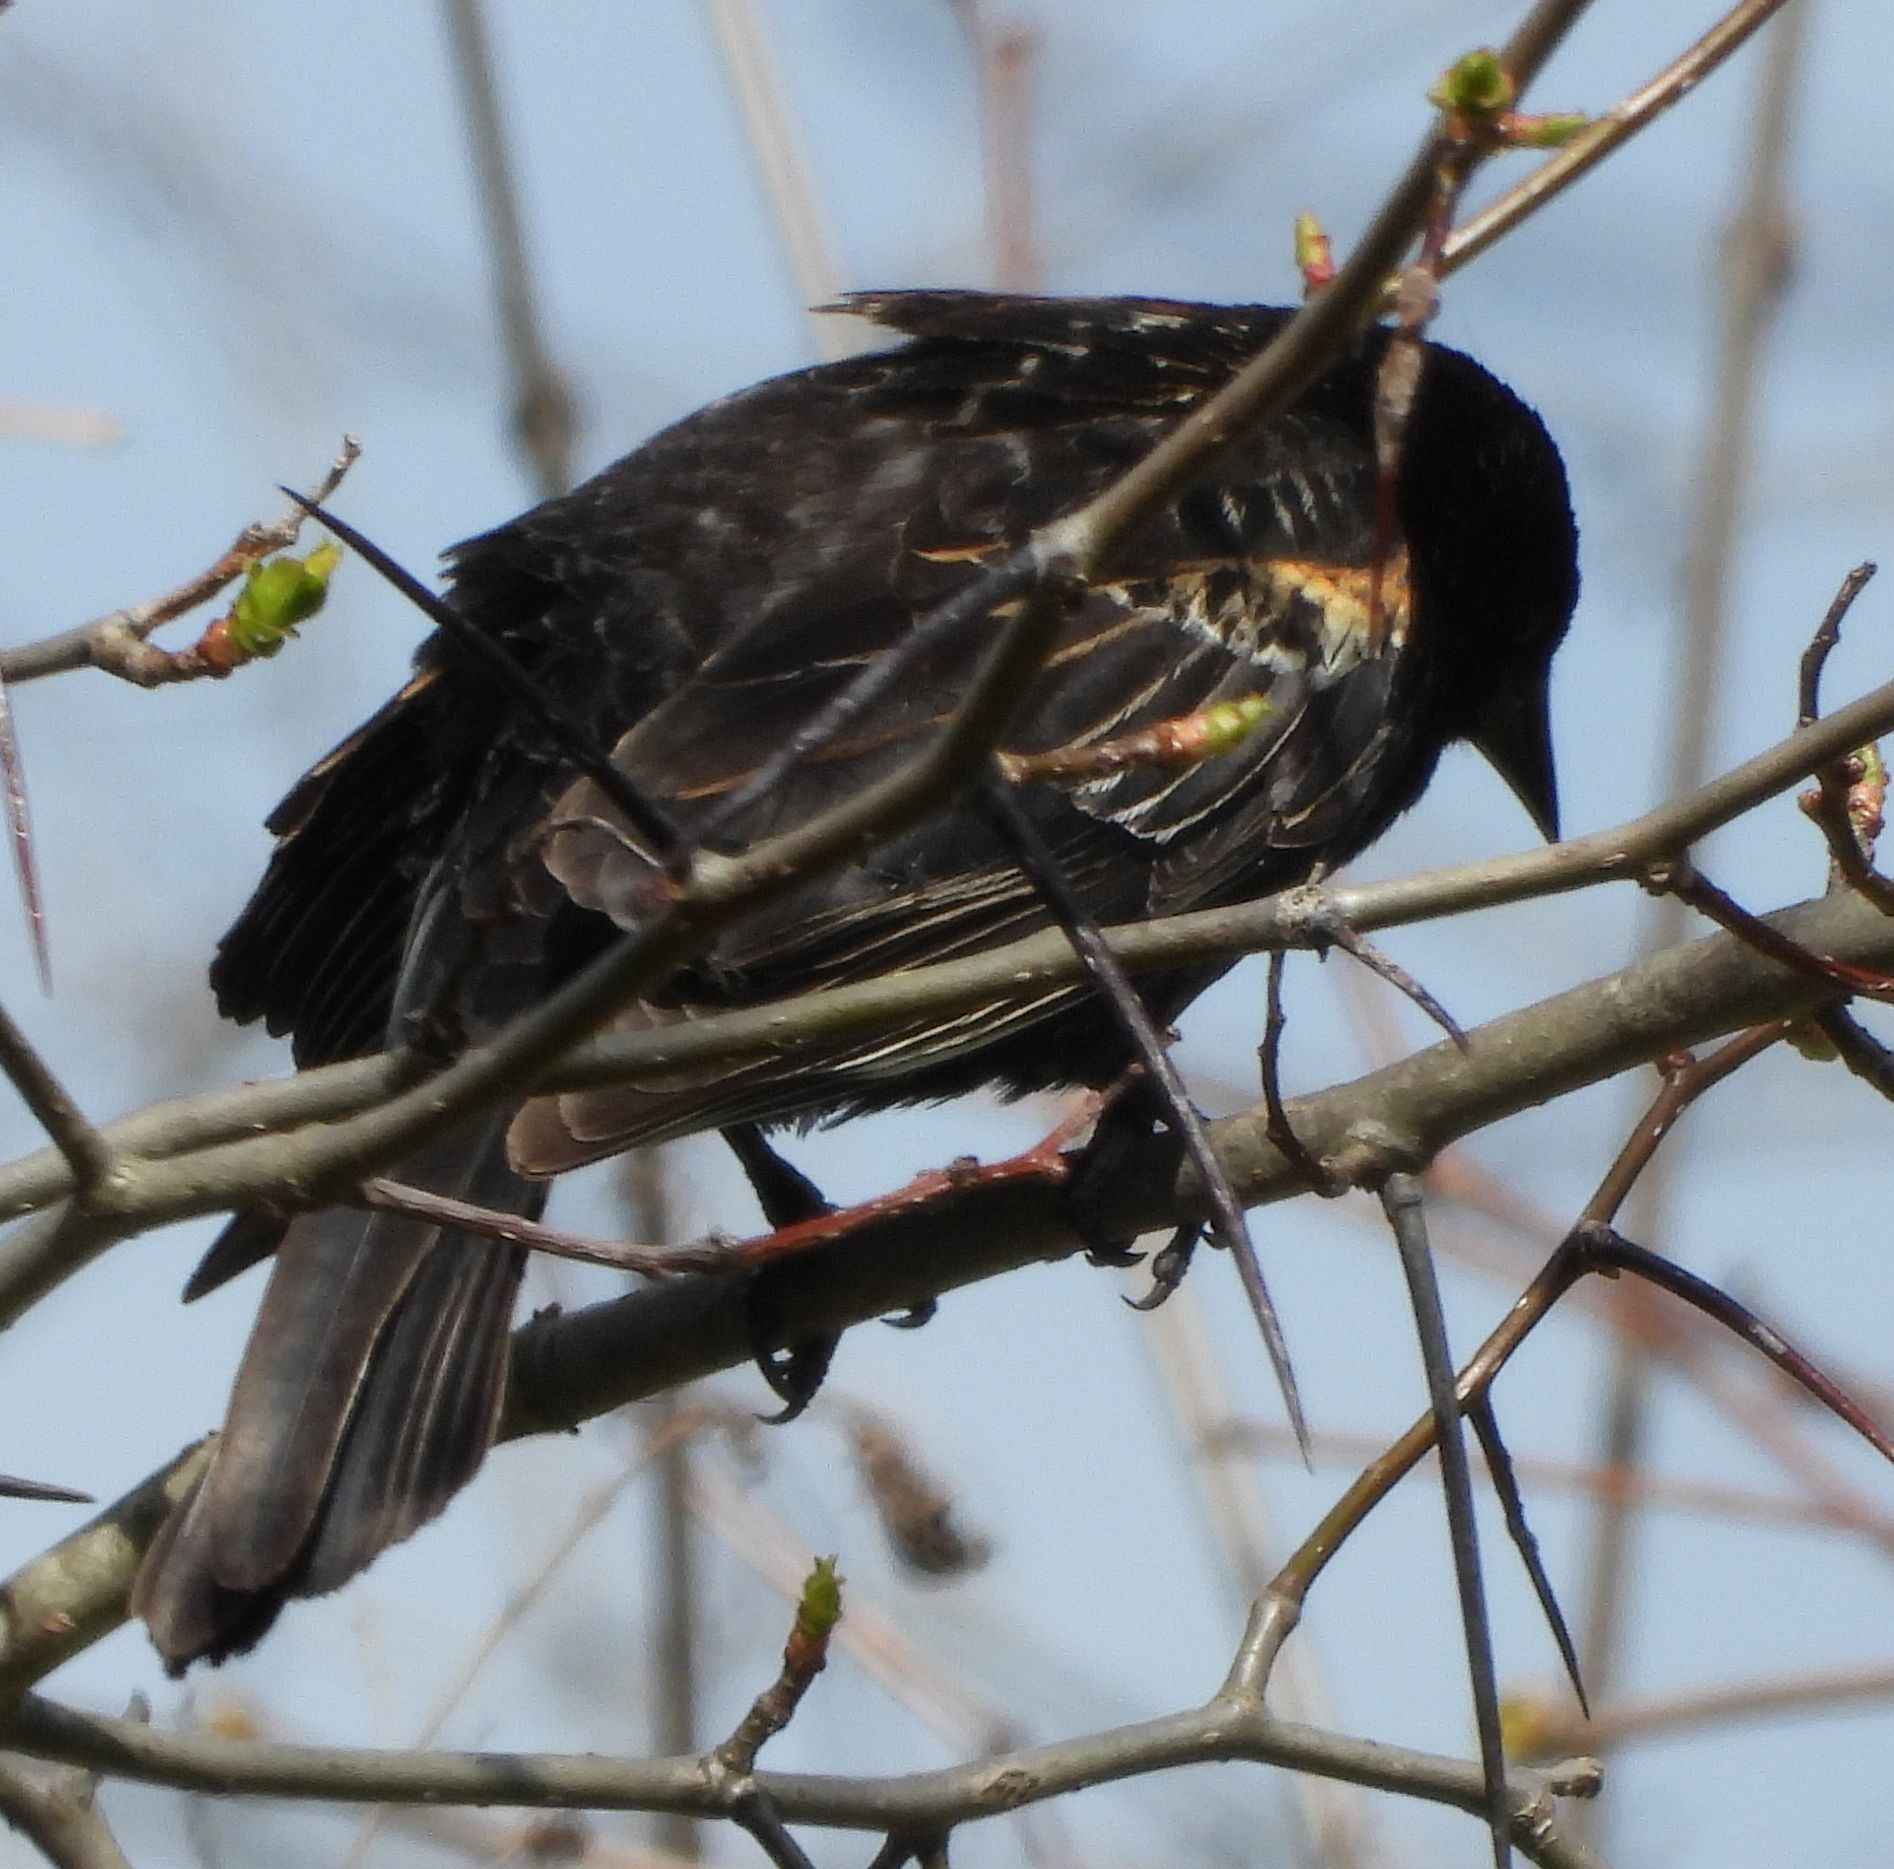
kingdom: Animalia
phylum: Chordata
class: Aves
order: Passeriformes
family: Icteridae
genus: Agelaius
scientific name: Agelaius phoeniceus
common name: Red-winged blackbird
